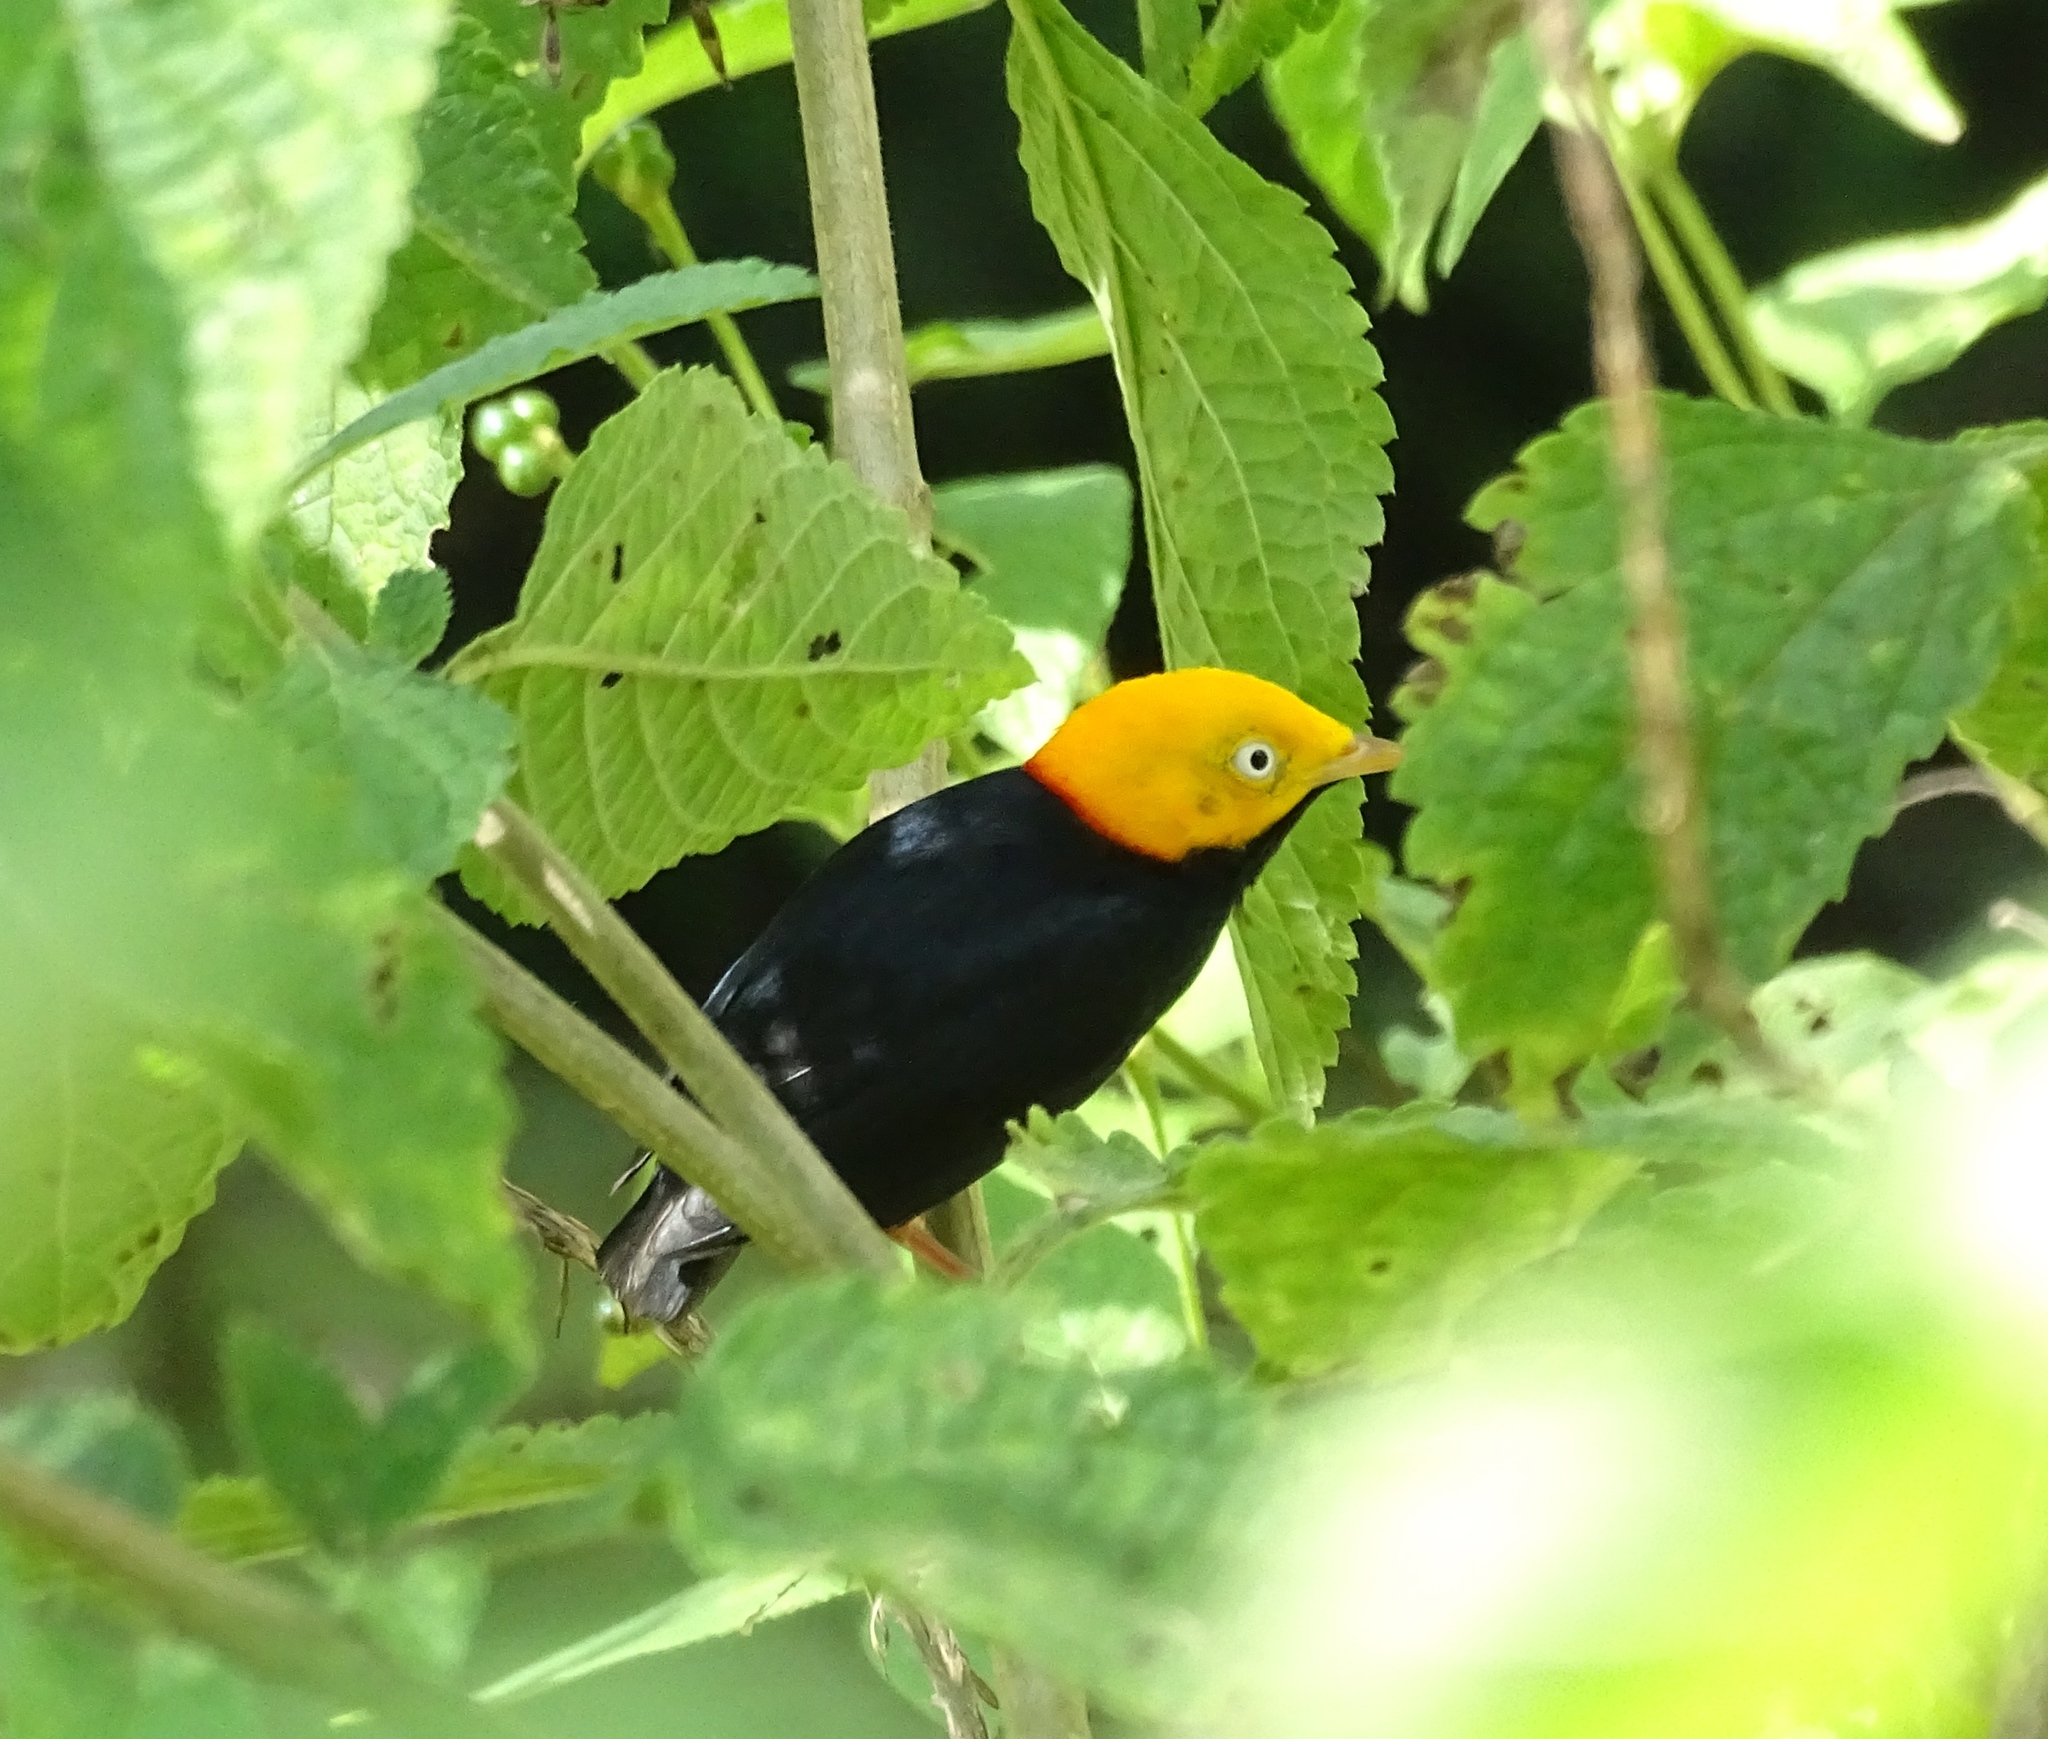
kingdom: Animalia
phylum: Chordata
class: Aves
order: Passeriformes
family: Pipridae
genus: Pipra
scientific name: Pipra erythrocephala
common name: Golden-headed manakin
